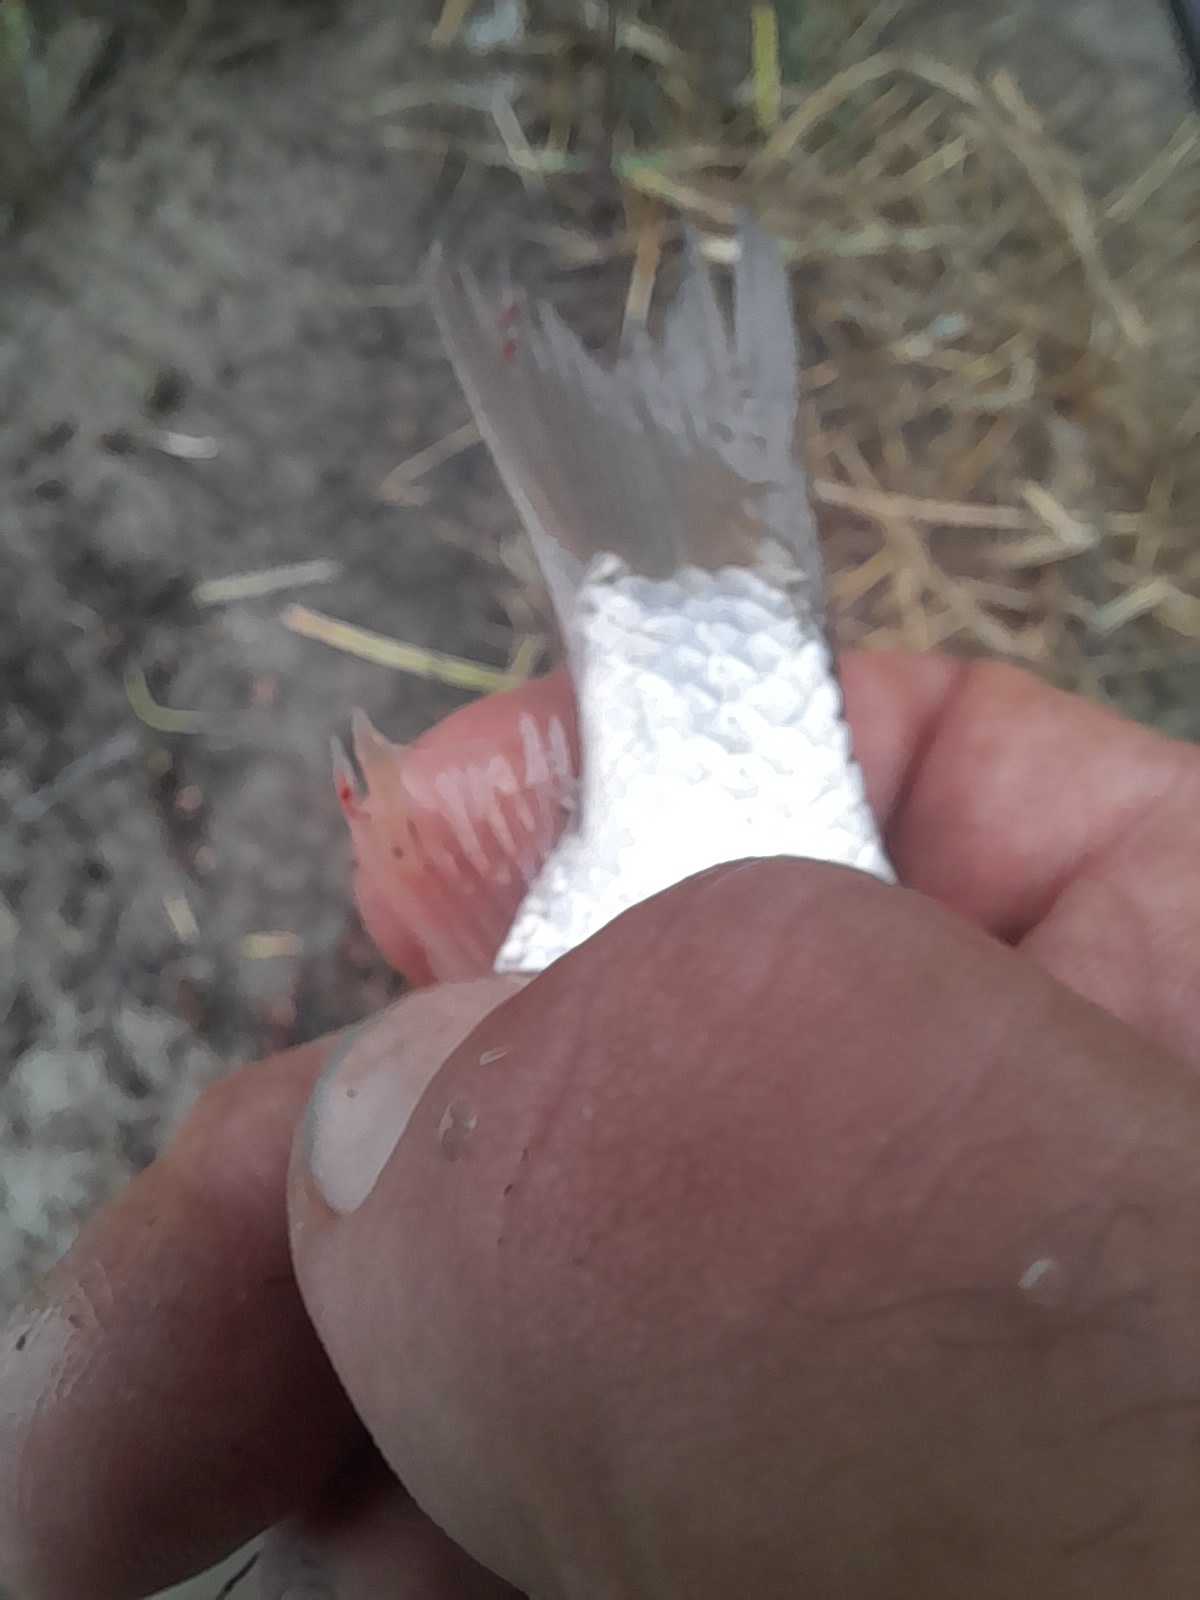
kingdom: Animalia
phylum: Chordata
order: Cypriniformes
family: Cyprinidae
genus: Carassius
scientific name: Carassius gibelio
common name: Prussian carp
